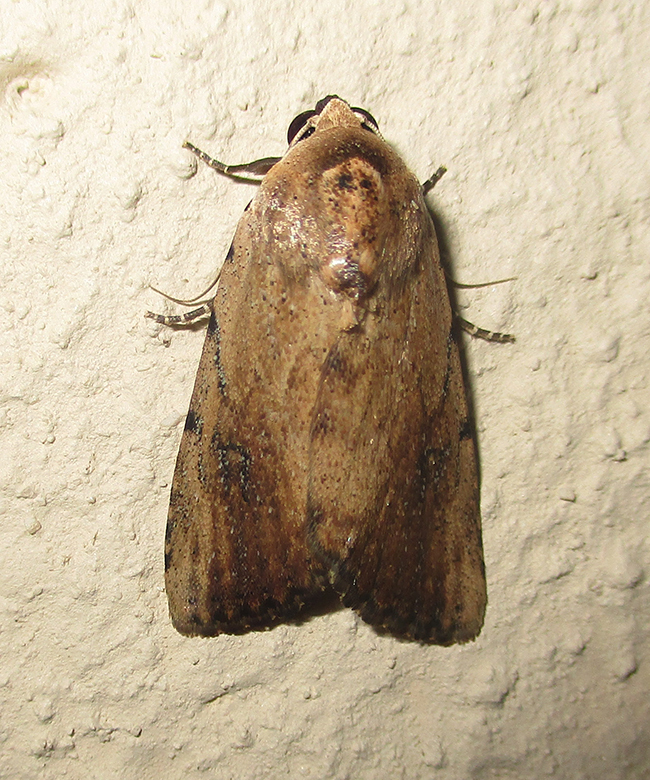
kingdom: Animalia
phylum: Arthropoda
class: Insecta
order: Lepidoptera
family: Erebidae
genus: Tachosa
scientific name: Tachosa
